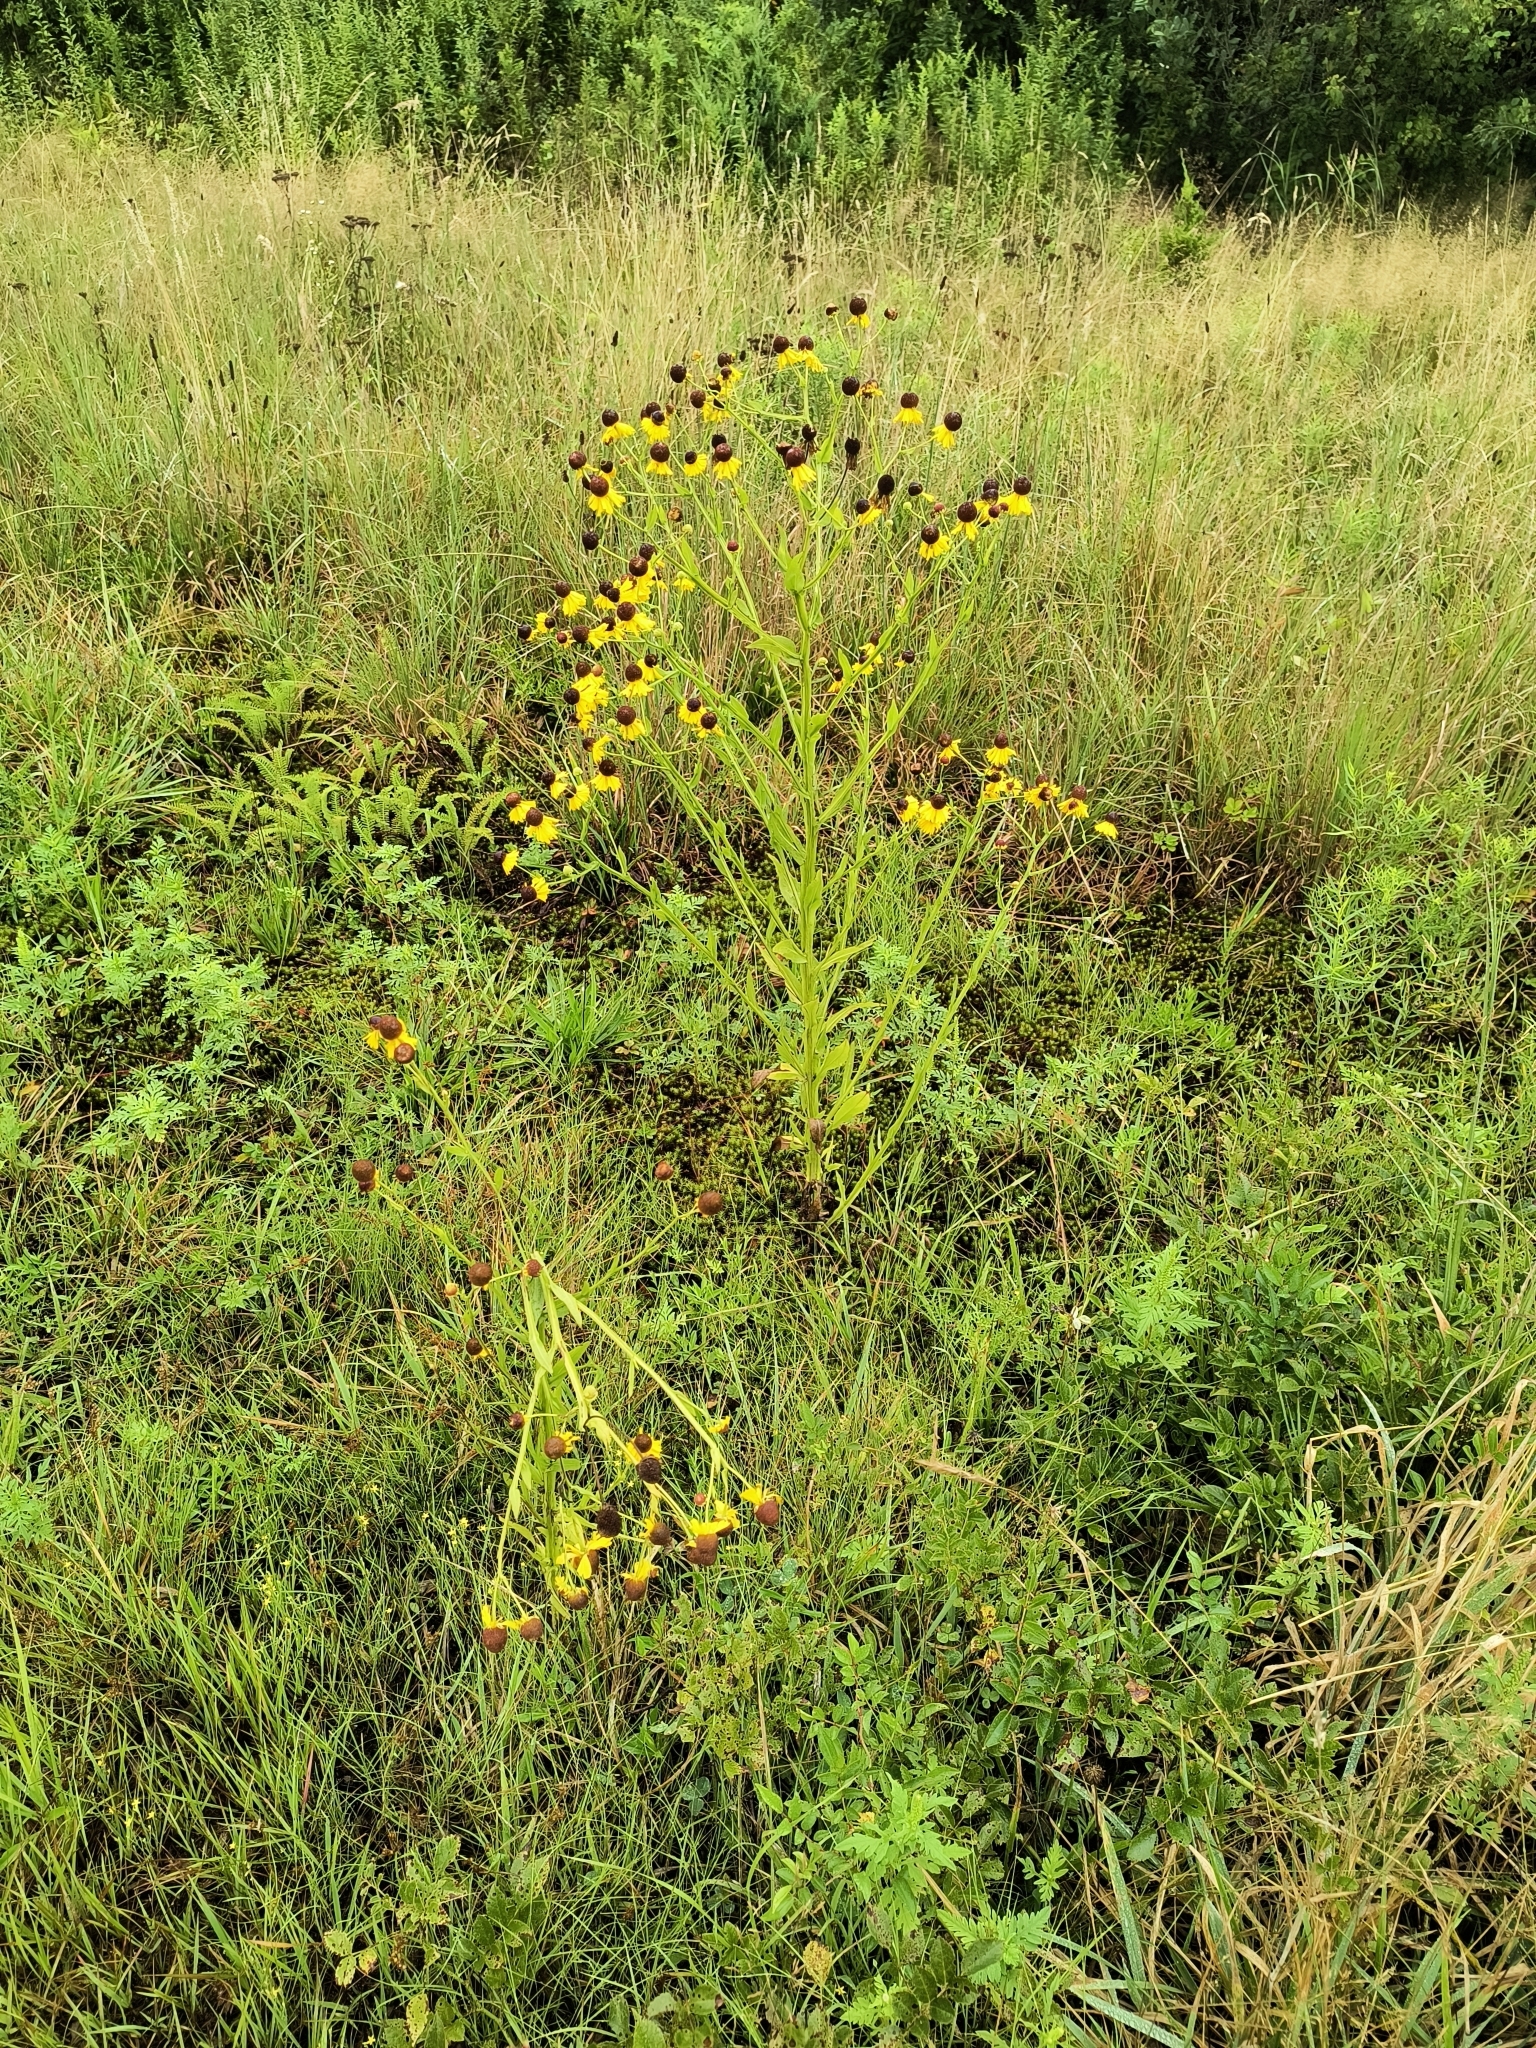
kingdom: Plantae
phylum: Tracheophyta
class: Magnoliopsida
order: Asterales
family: Asteraceae
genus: Helenium
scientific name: Helenium flexuosum
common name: Naked-flowered sneezeweed
